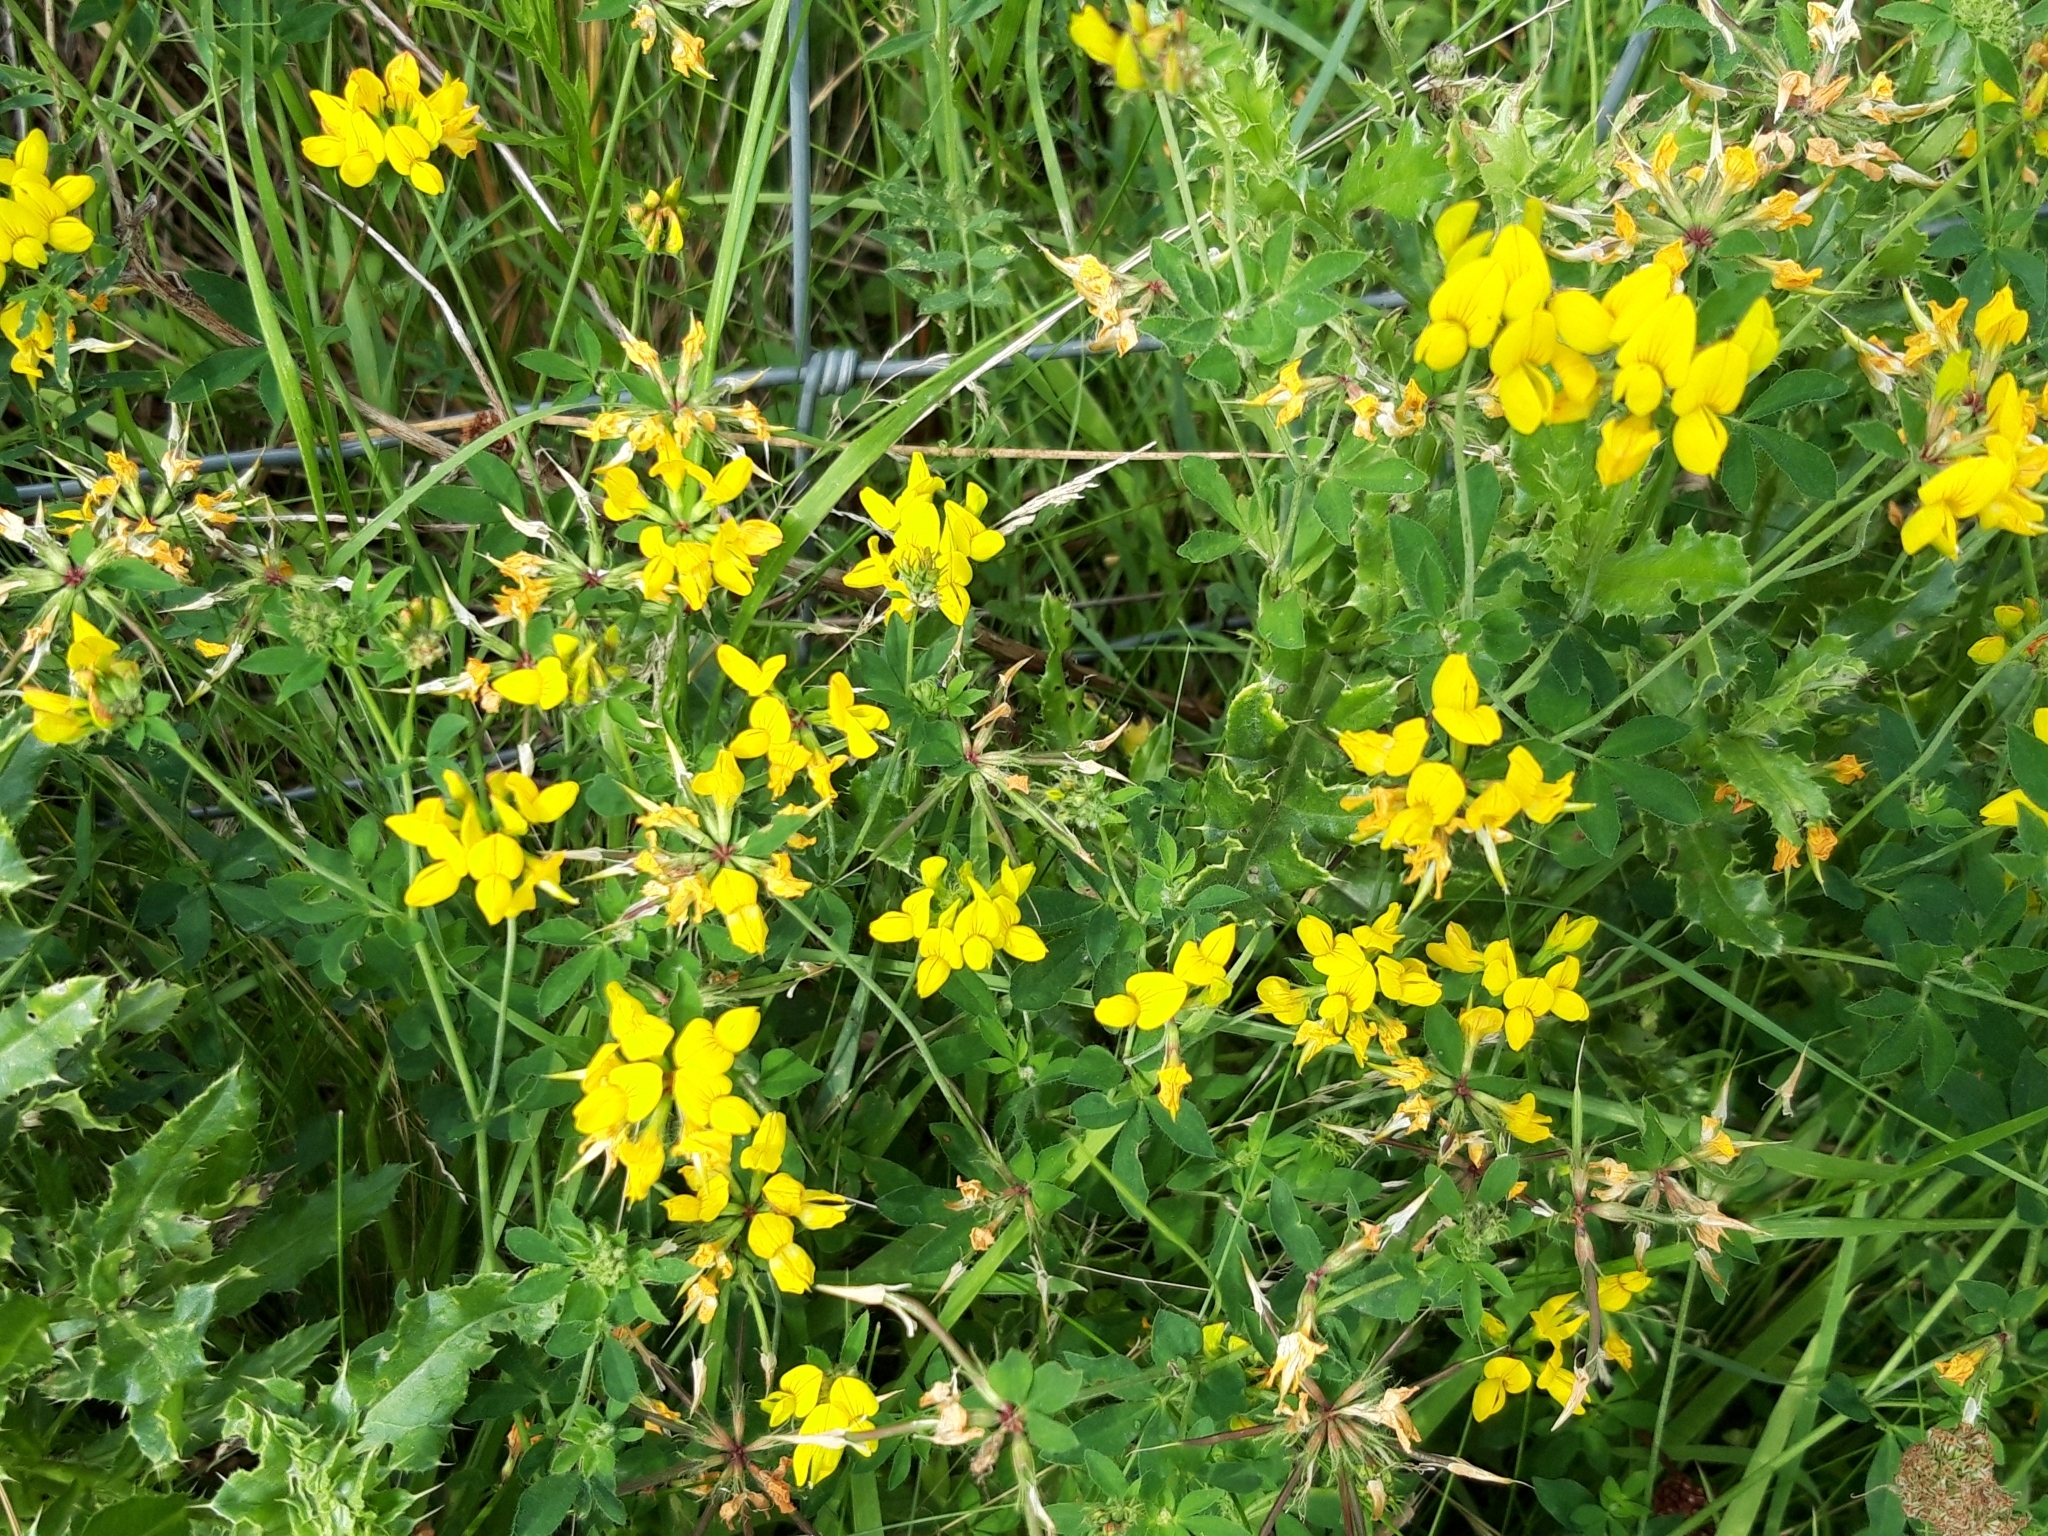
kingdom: Plantae
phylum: Tracheophyta
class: Magnoliopsida
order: Fabales
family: Fabaceae
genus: Lotus
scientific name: Lotus pedunculatus
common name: Greater birdsfoot-trefoil
